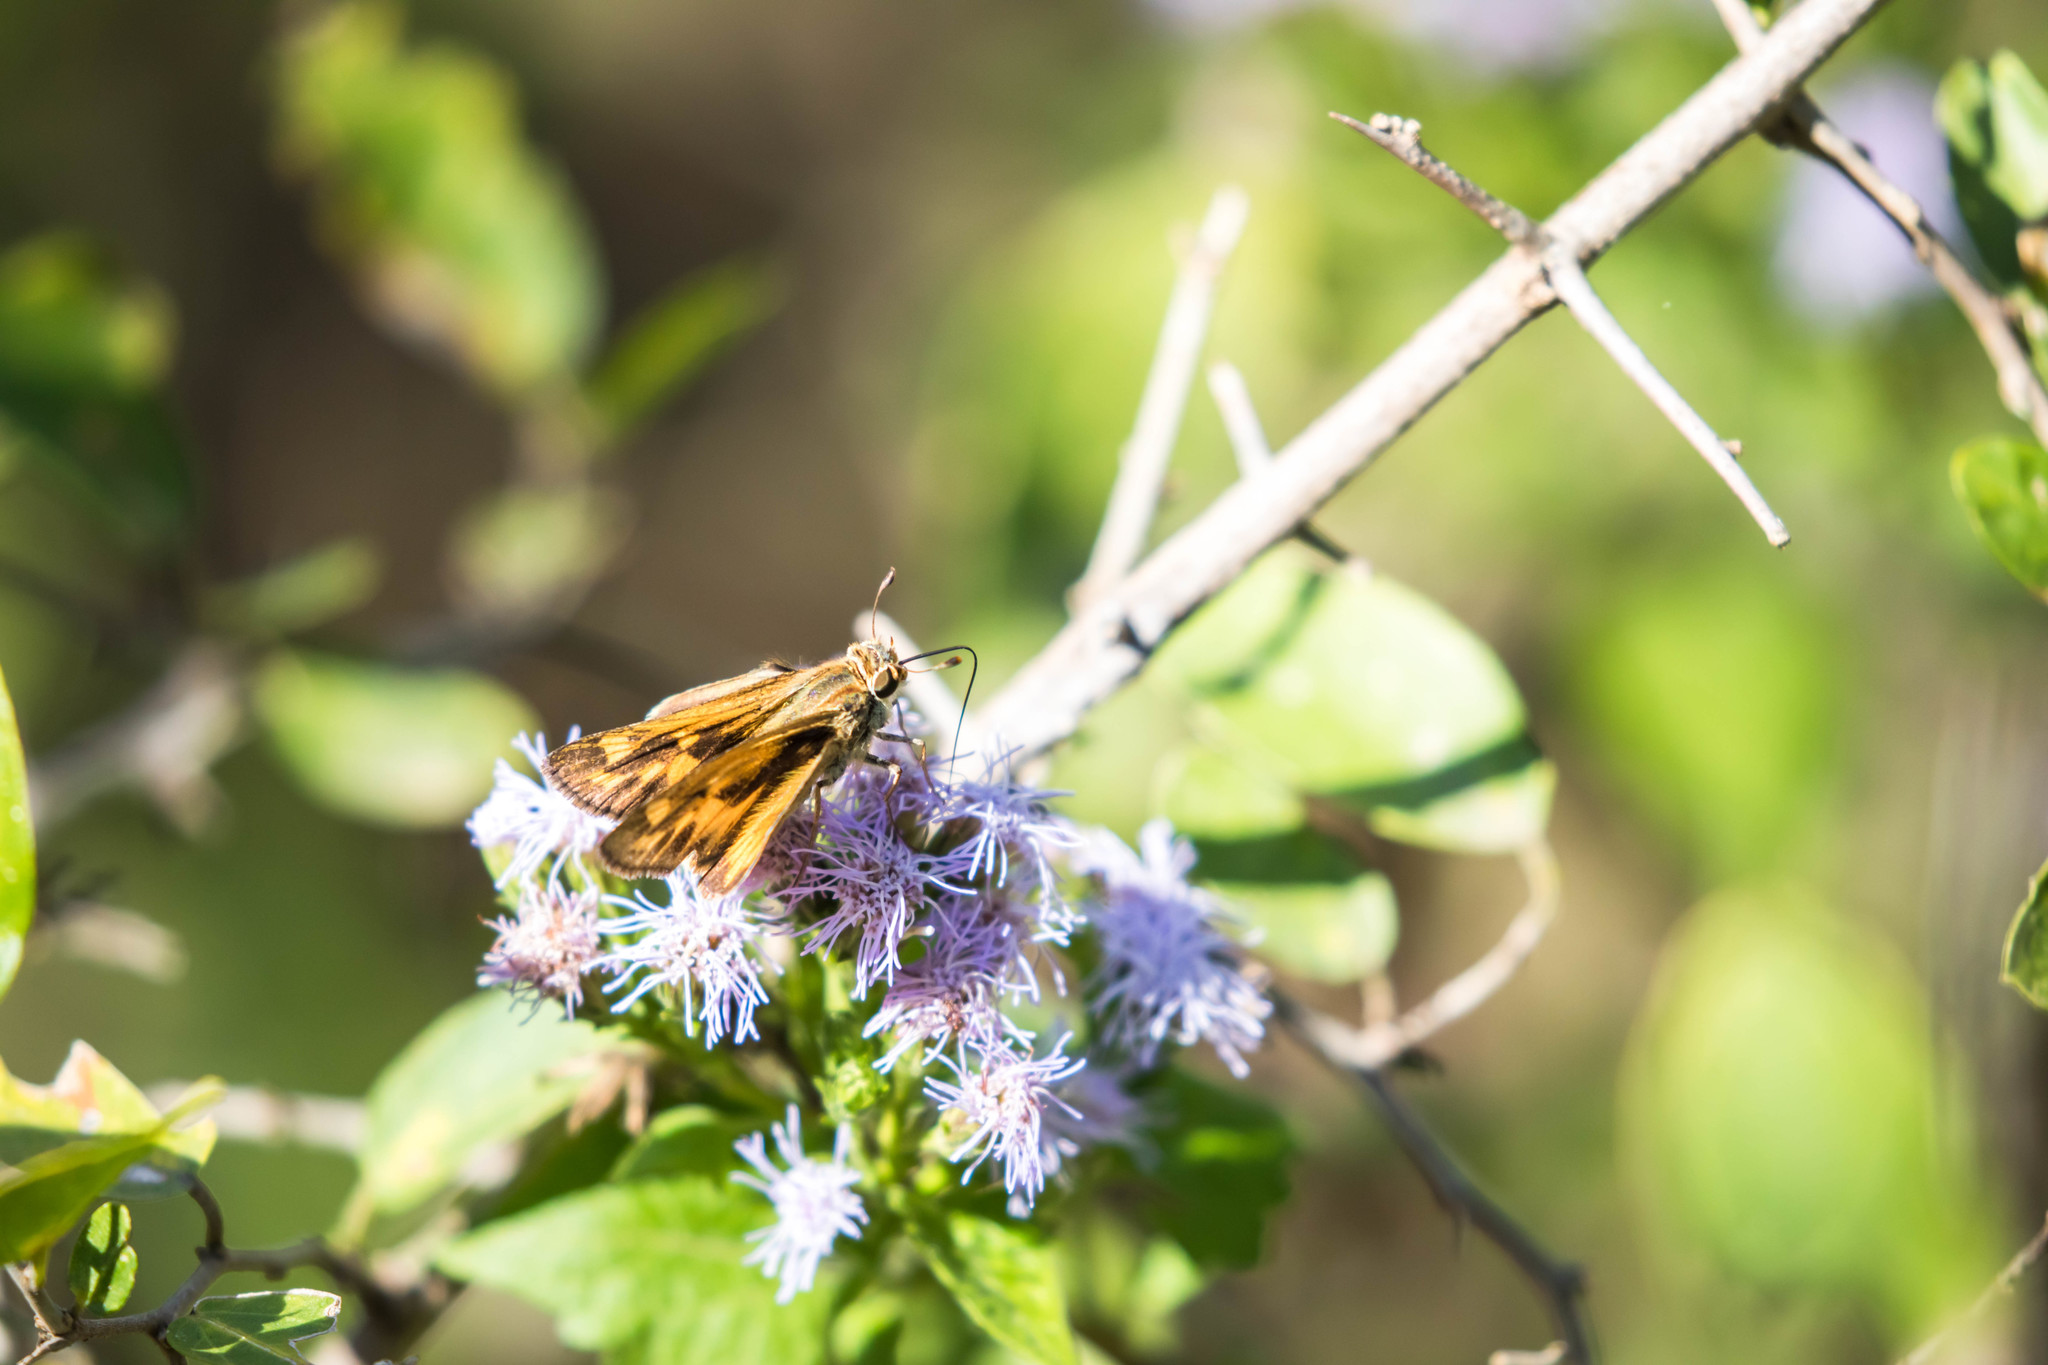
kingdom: Animalia
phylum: Arthropoda
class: Insecta
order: Lepidoptera
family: Hesperiidae
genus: Hylephila
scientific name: Hylephila phyleus
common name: Fiery skipper
